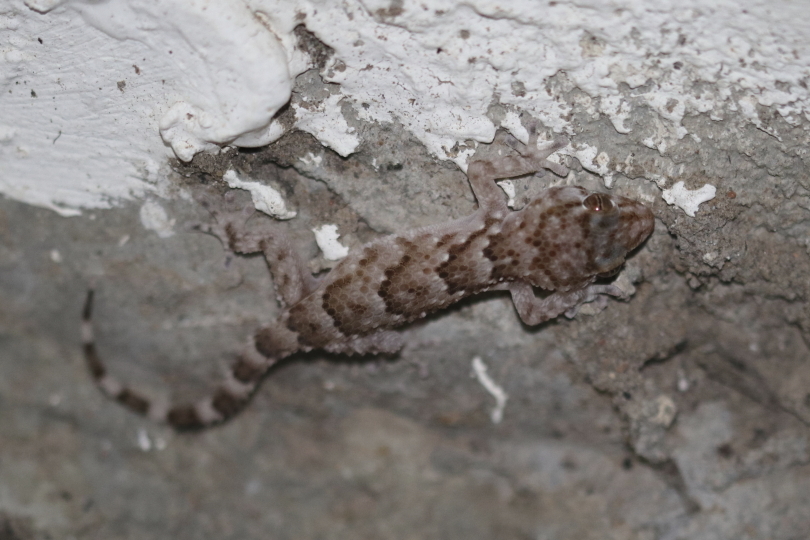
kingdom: Animalia
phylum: Chordata
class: Squamata
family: Gekkonidae
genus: Chondrodactylus
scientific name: Chondrodactylus bibronii
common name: Bibron's gecko
